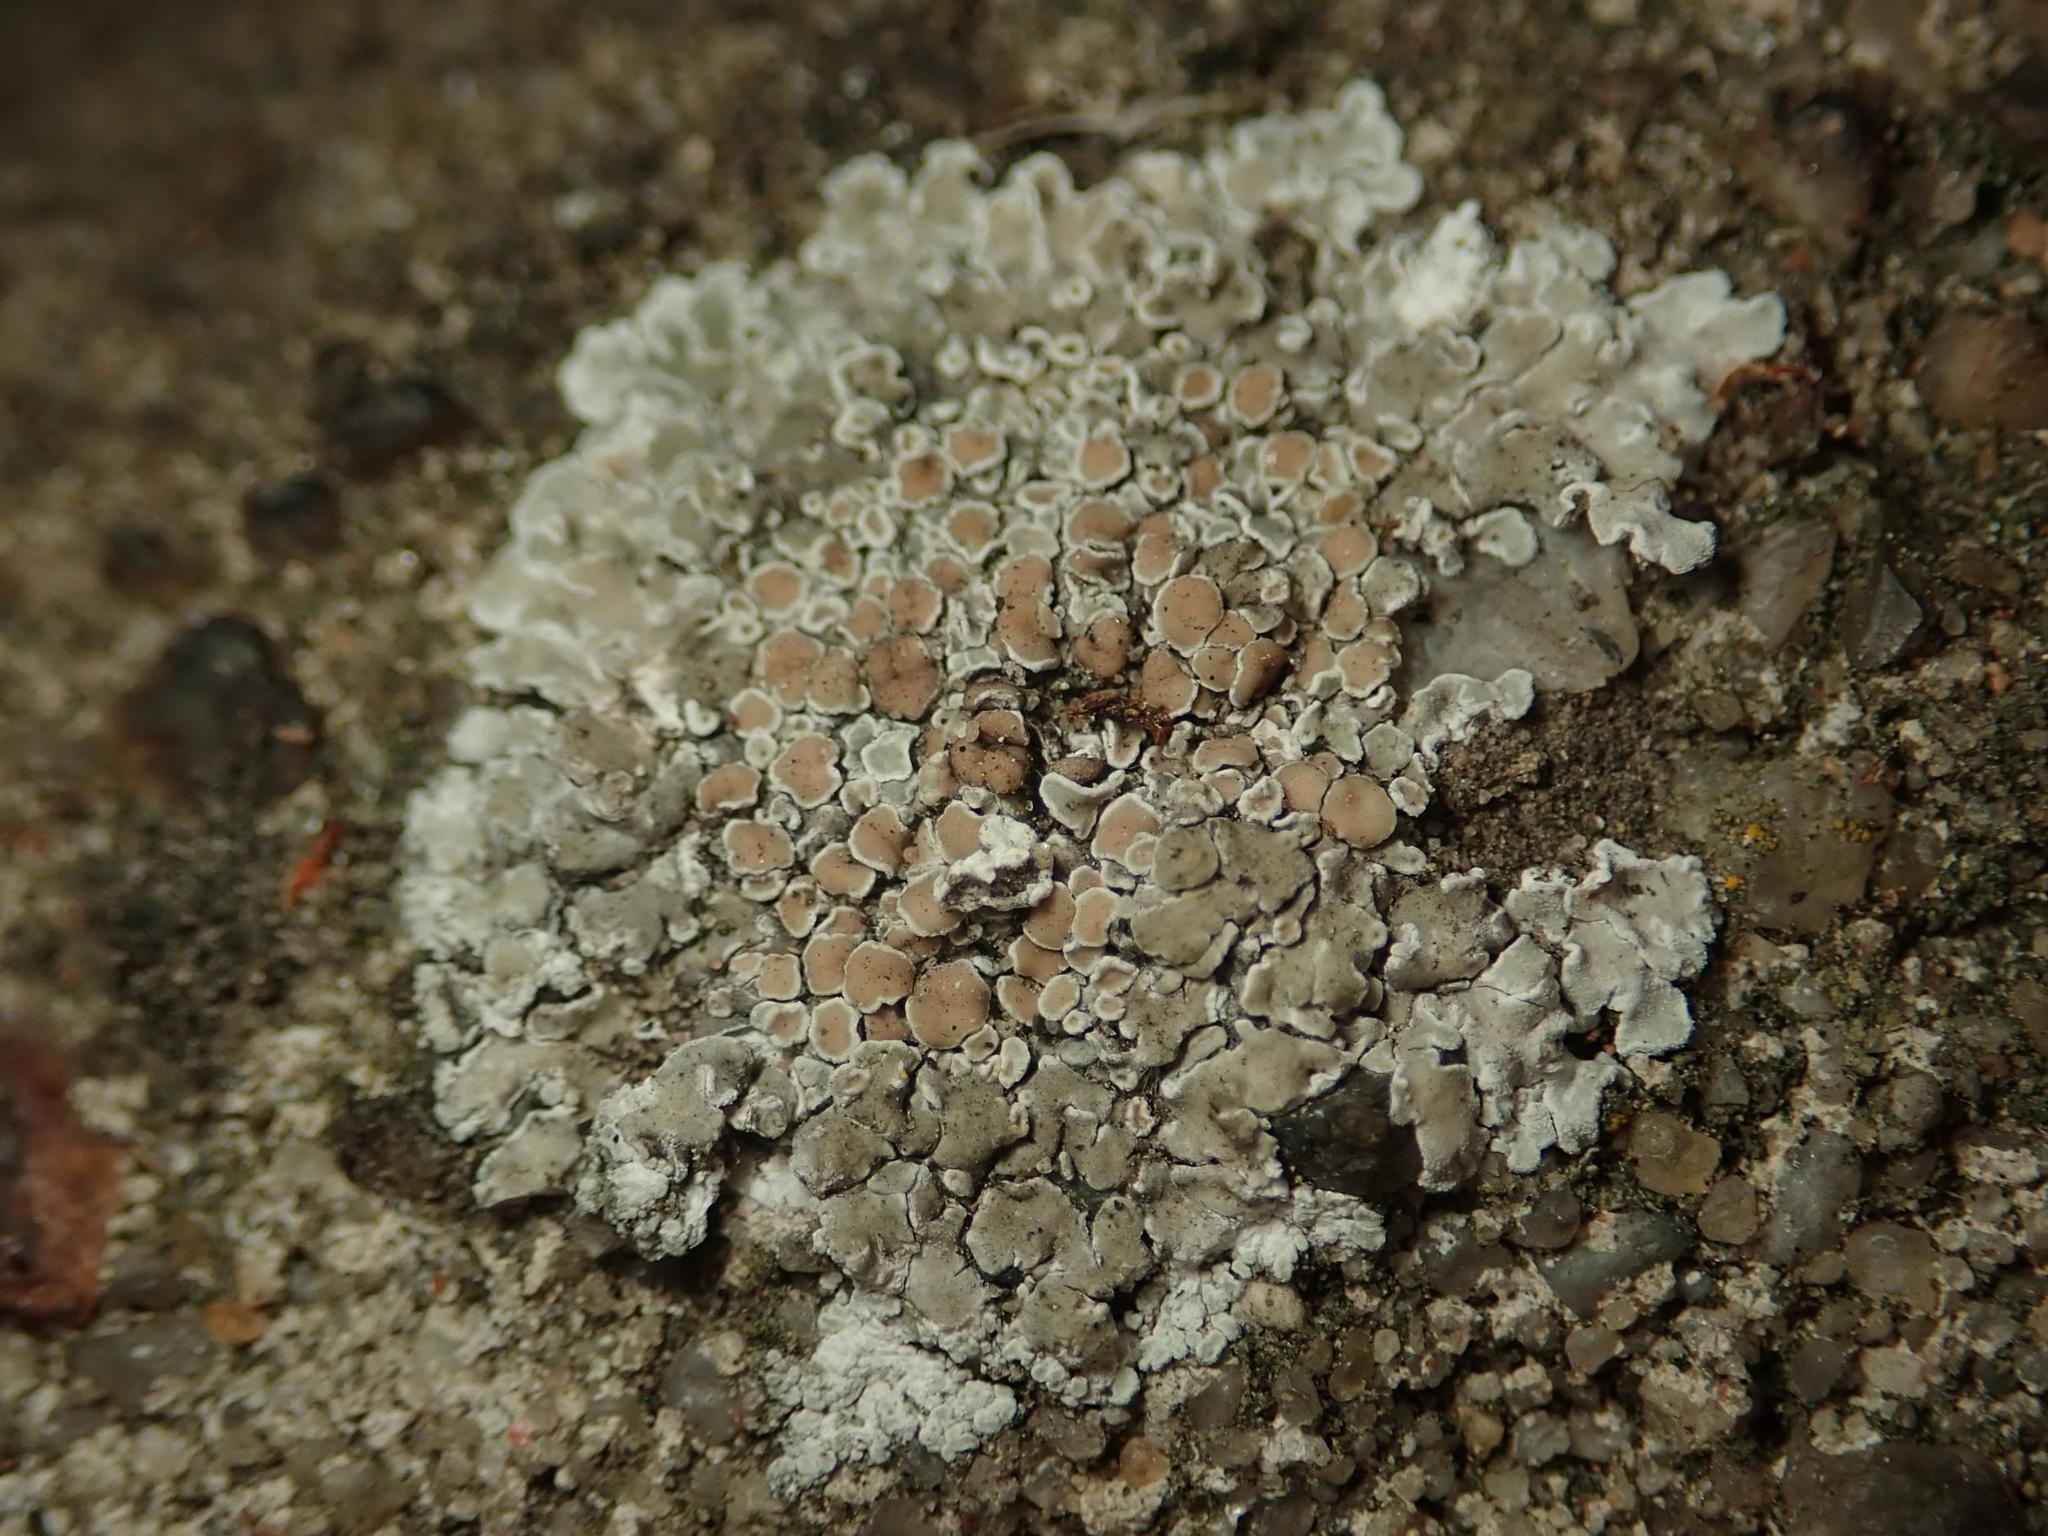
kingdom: Fungi
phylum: Ascomycota
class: Lecanoromycetes
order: Lecanorales
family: Lecanoraceae
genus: Protoparmeliopsis
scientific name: Protoparmeliopsis muralis
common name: Stonewall rim lichen
